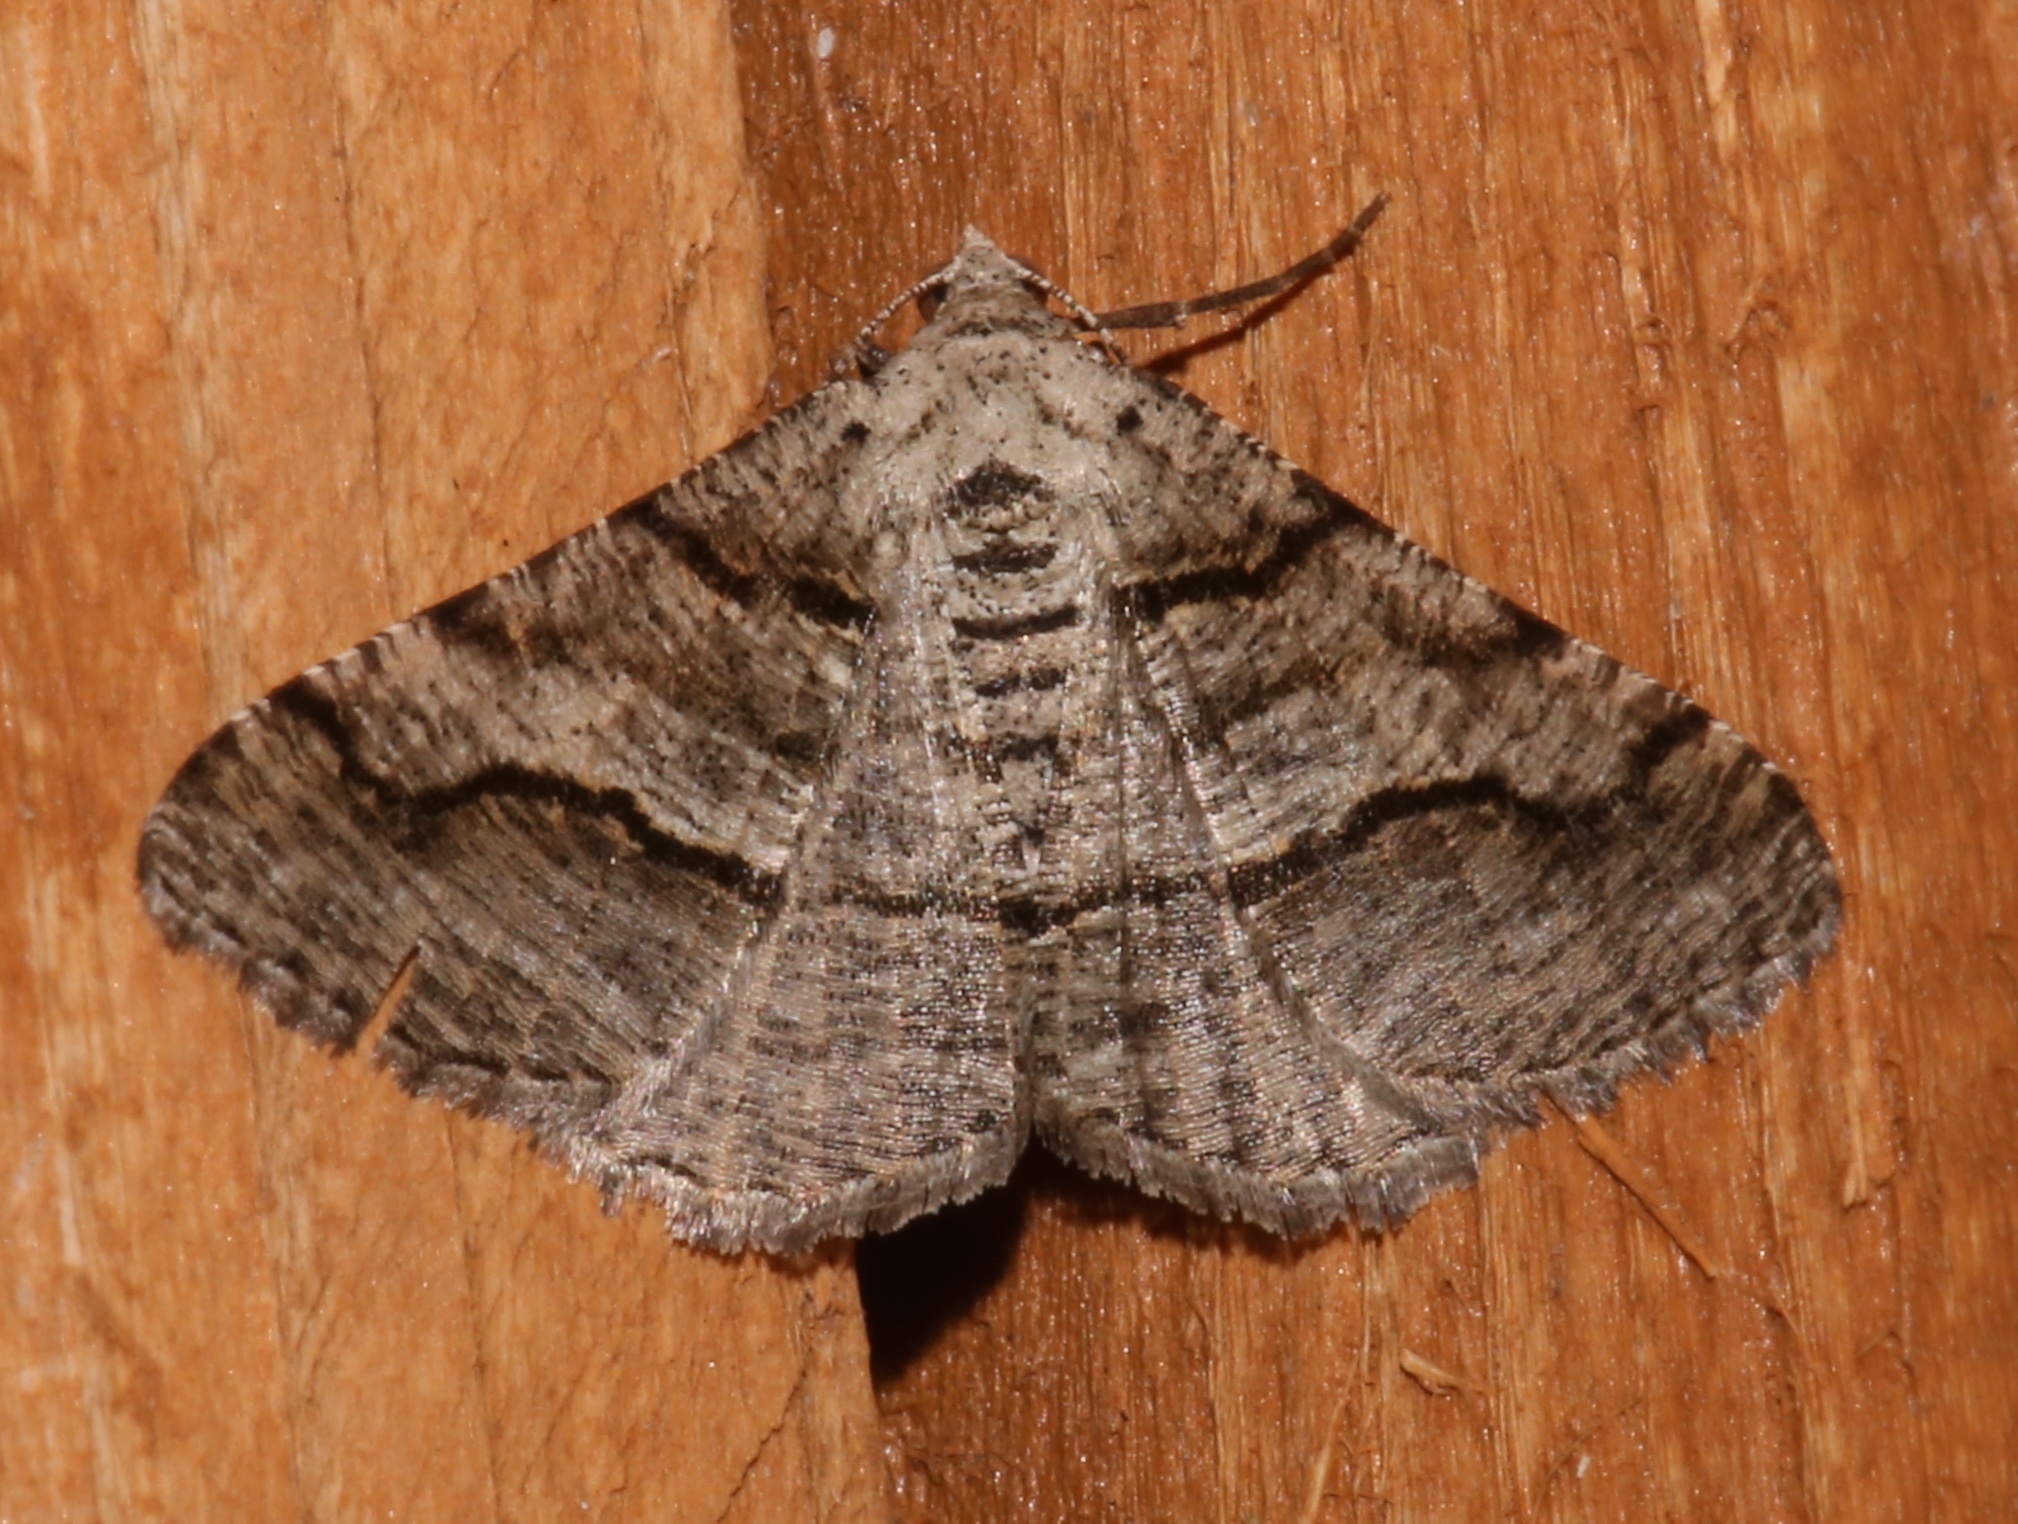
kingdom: Animalia
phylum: Arthropoda
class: Insecta
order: Lepidoptera
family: Geometridae
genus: Digrammia
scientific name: Digrammia continuata
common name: Curve-lined angle
